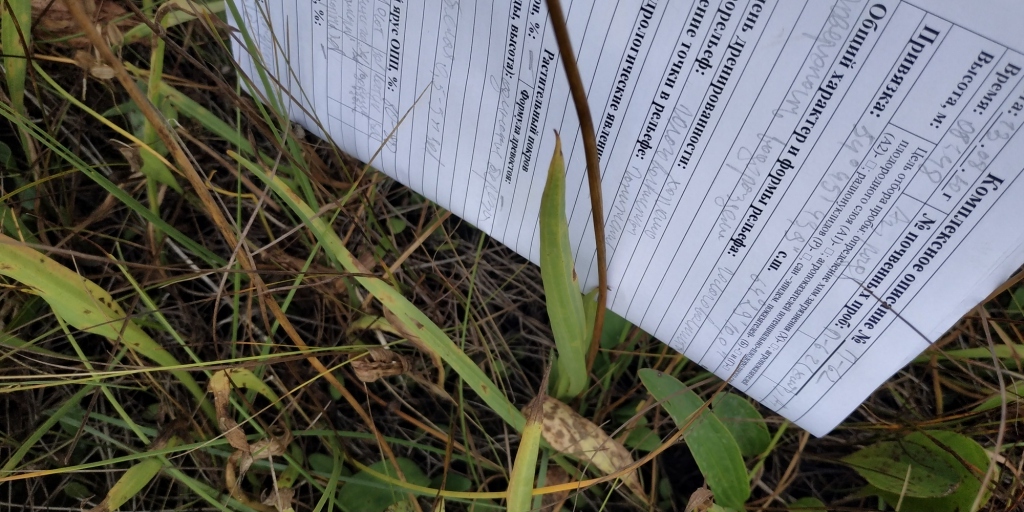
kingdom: Plantae
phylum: Tracheophyta
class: Liliopsida
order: Alismatales
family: Juncaginaceae
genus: Triglochin
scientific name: Triglochin maritima
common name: Sea arrowgrass
